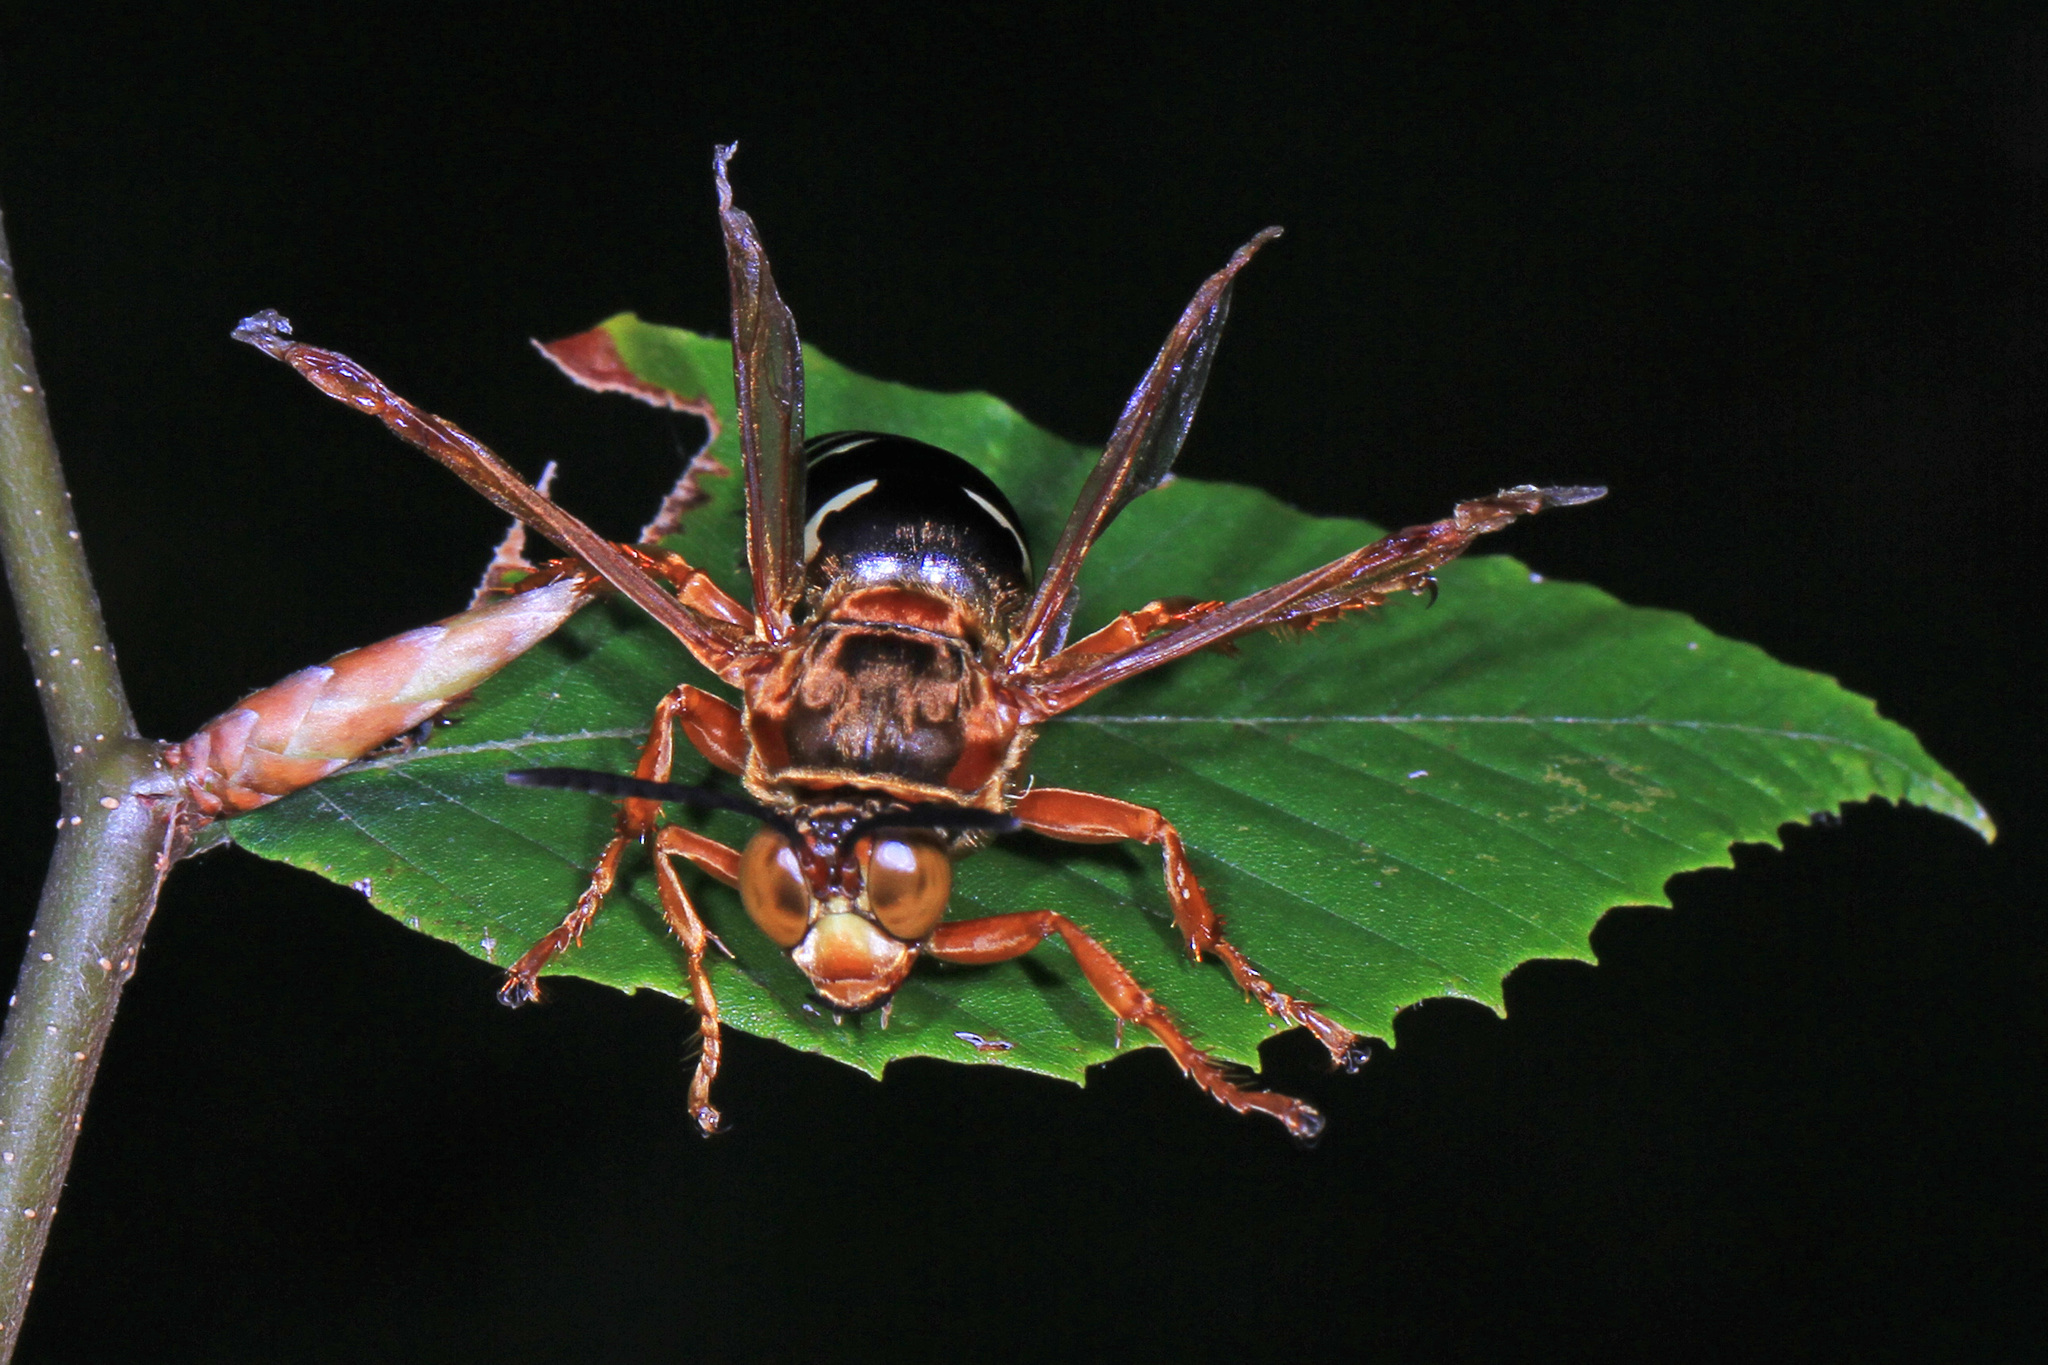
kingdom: Animalia
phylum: Arthropoda
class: Insecta
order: Hymenoptera
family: Crabronidae
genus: Sphecius
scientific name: Sphecius speciosus
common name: Cicada killer
